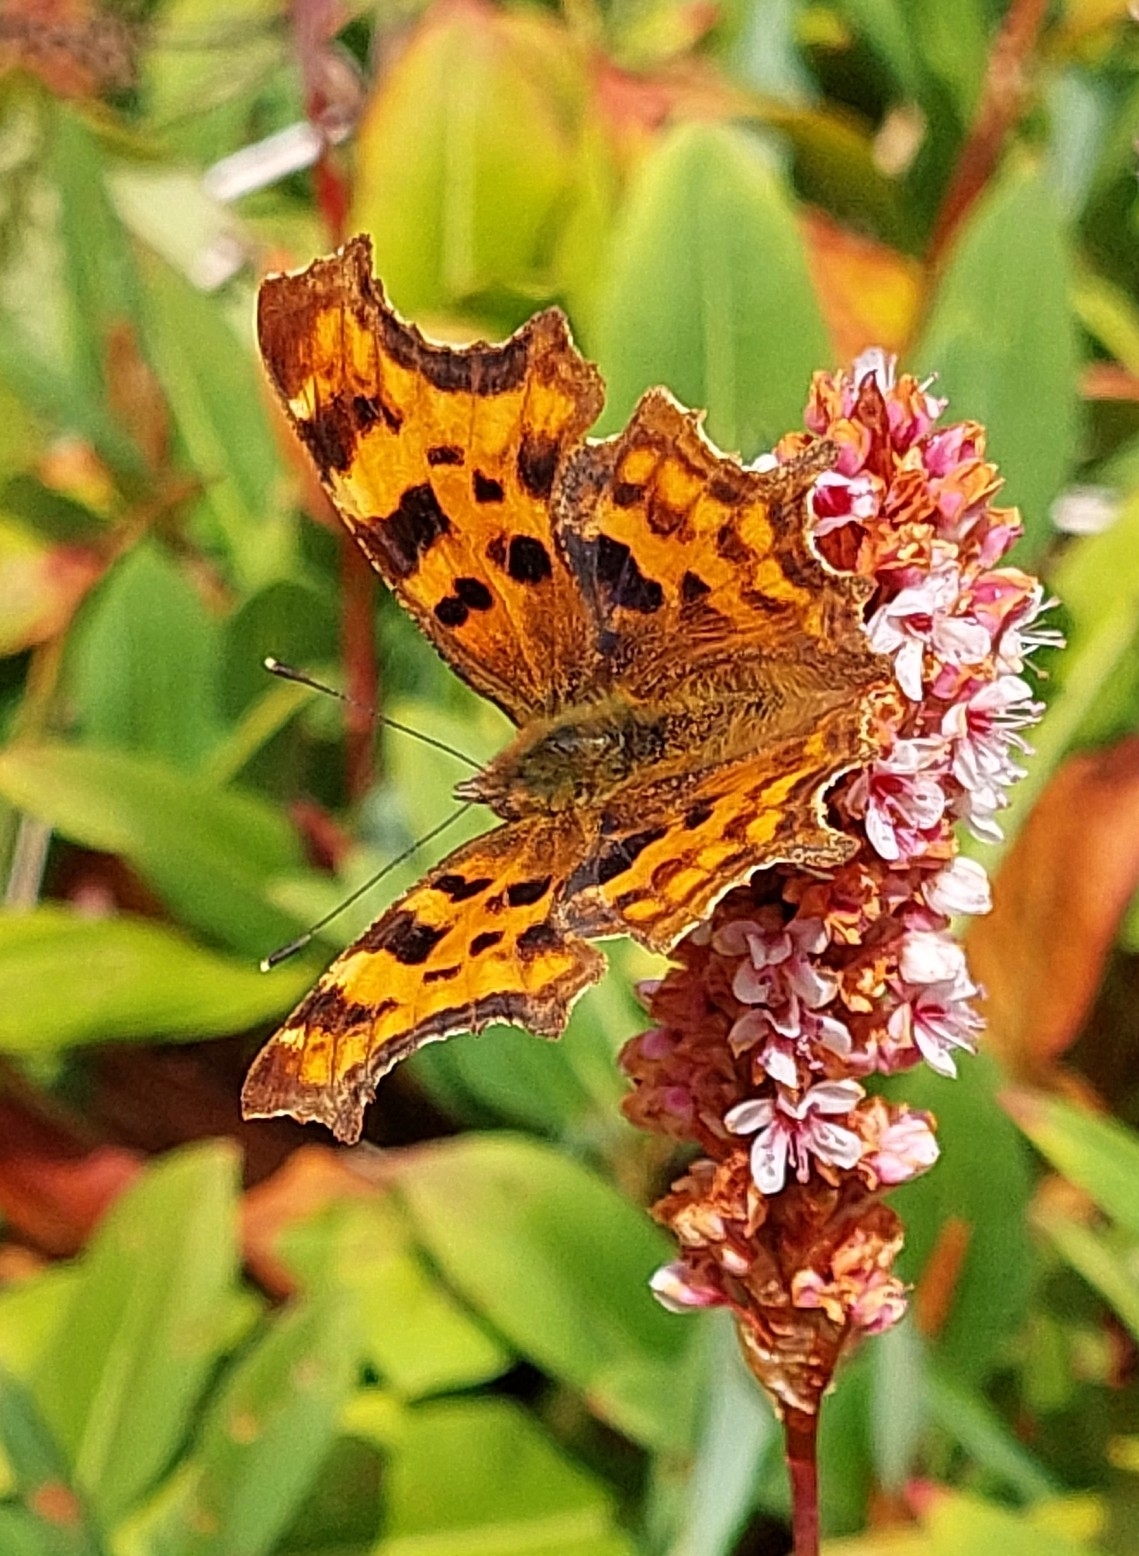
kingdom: Animalia
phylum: Arthropoda
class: Insecta
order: Lepidoptera
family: Nymphalidae
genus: Polygonia
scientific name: Polygonia c-album
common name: Comma
